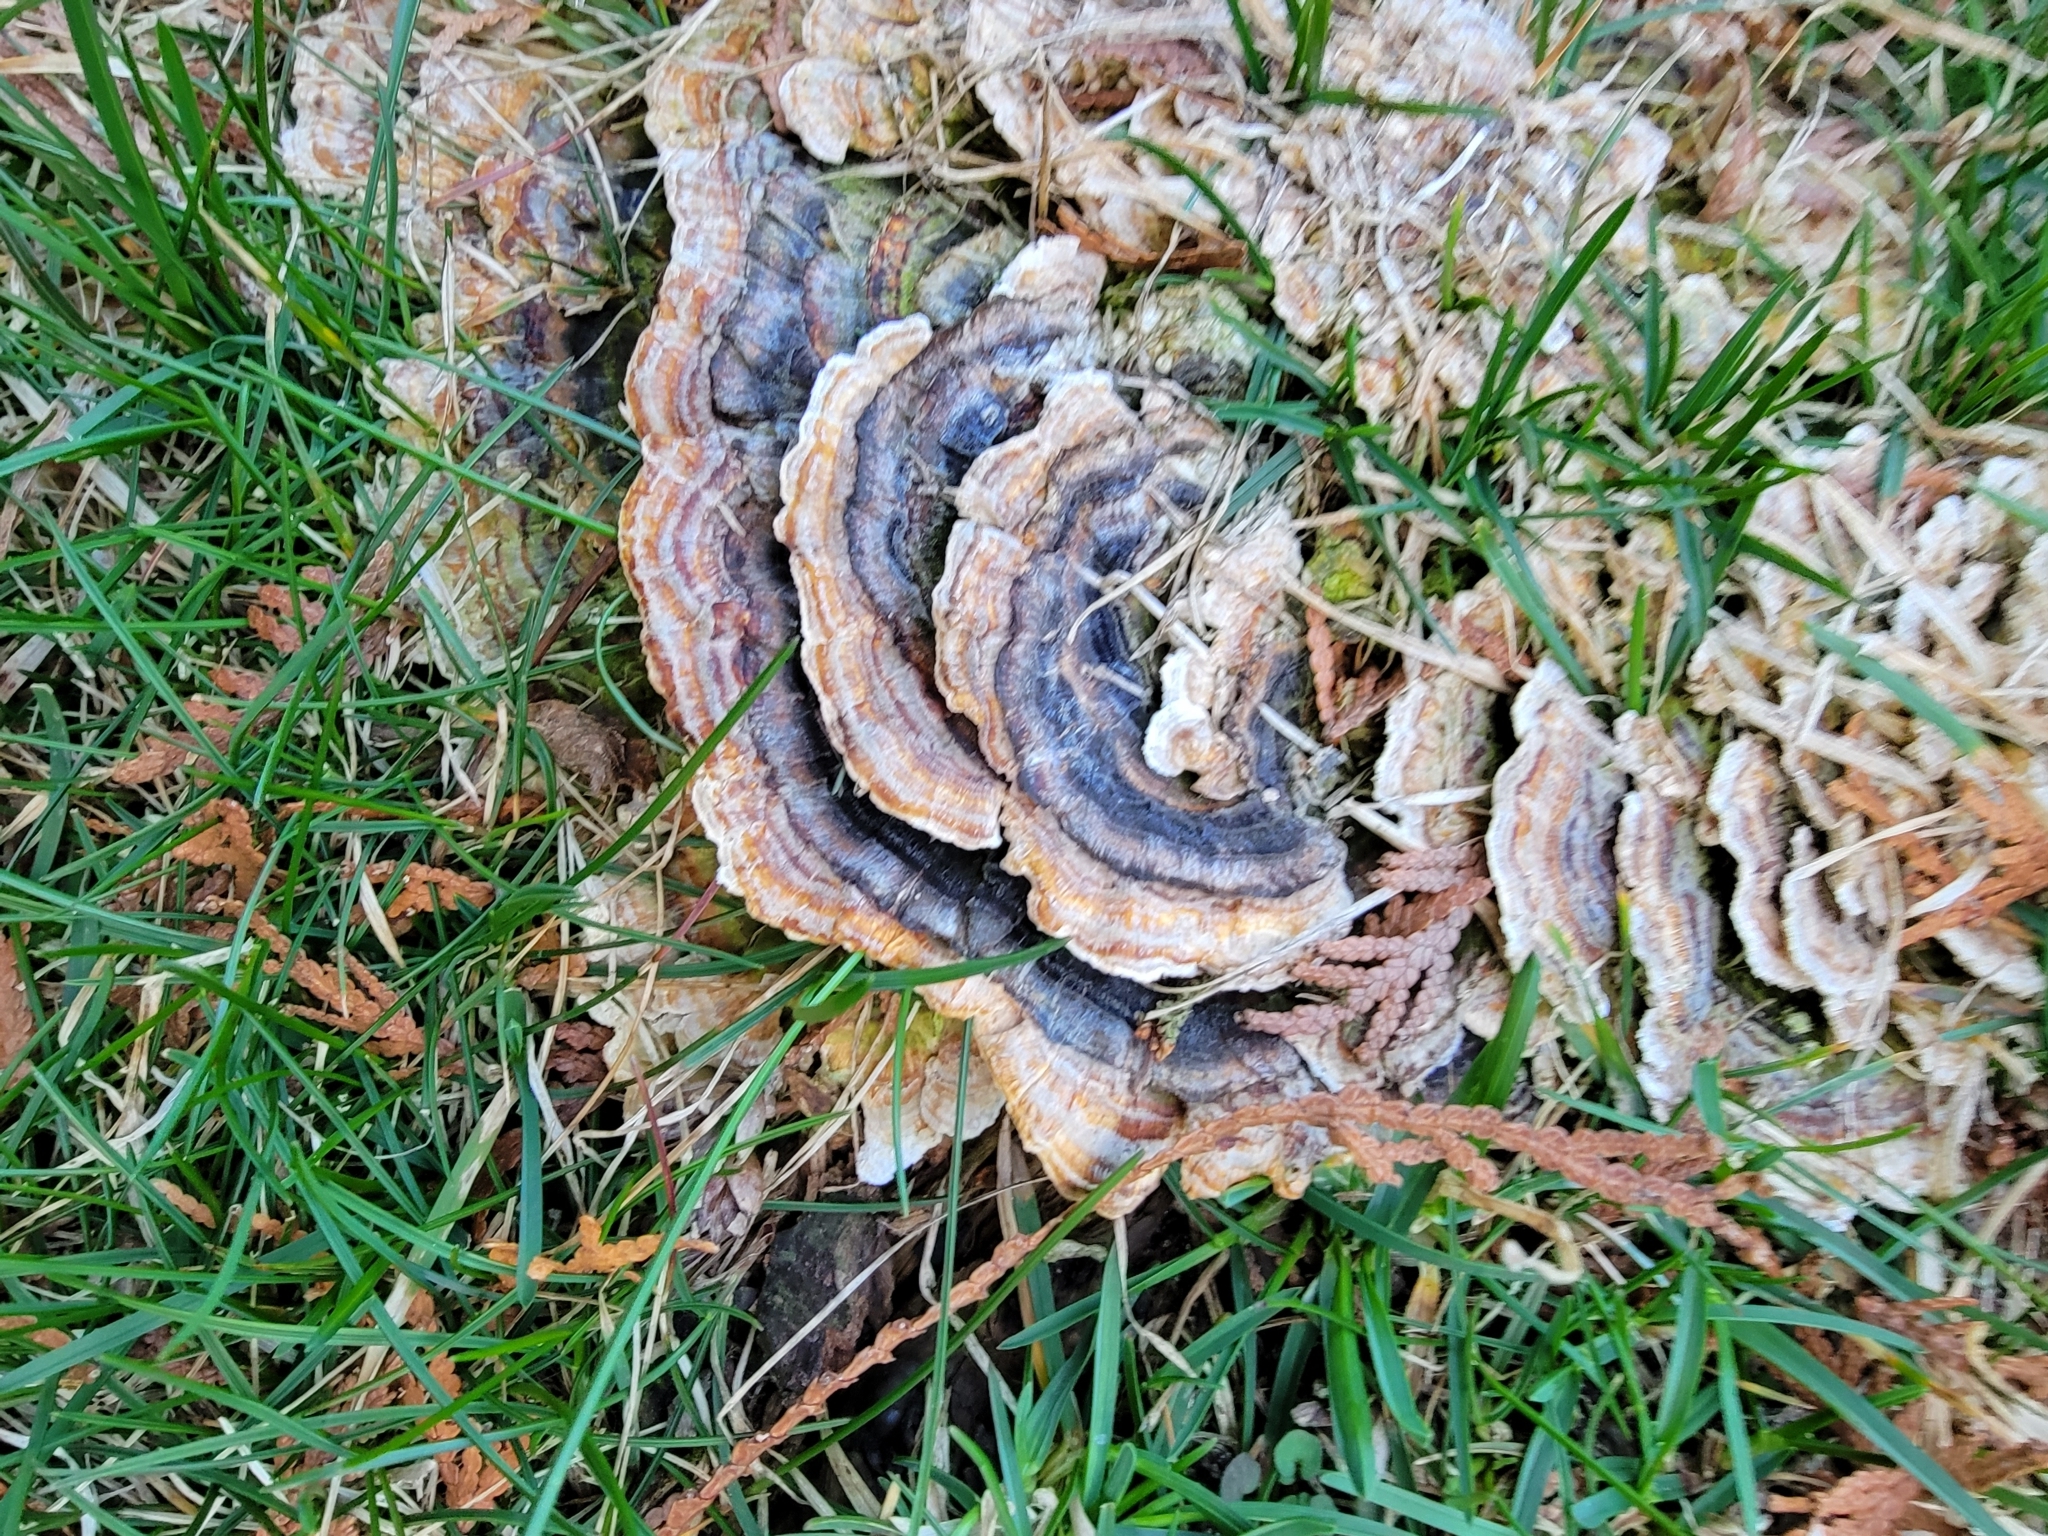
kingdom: Fungi
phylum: Basidiomycota
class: Agaricomycetes
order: Polyporales
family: Polyporaceae
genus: Trametes
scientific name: Trametes versicolor
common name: Turkeytail
